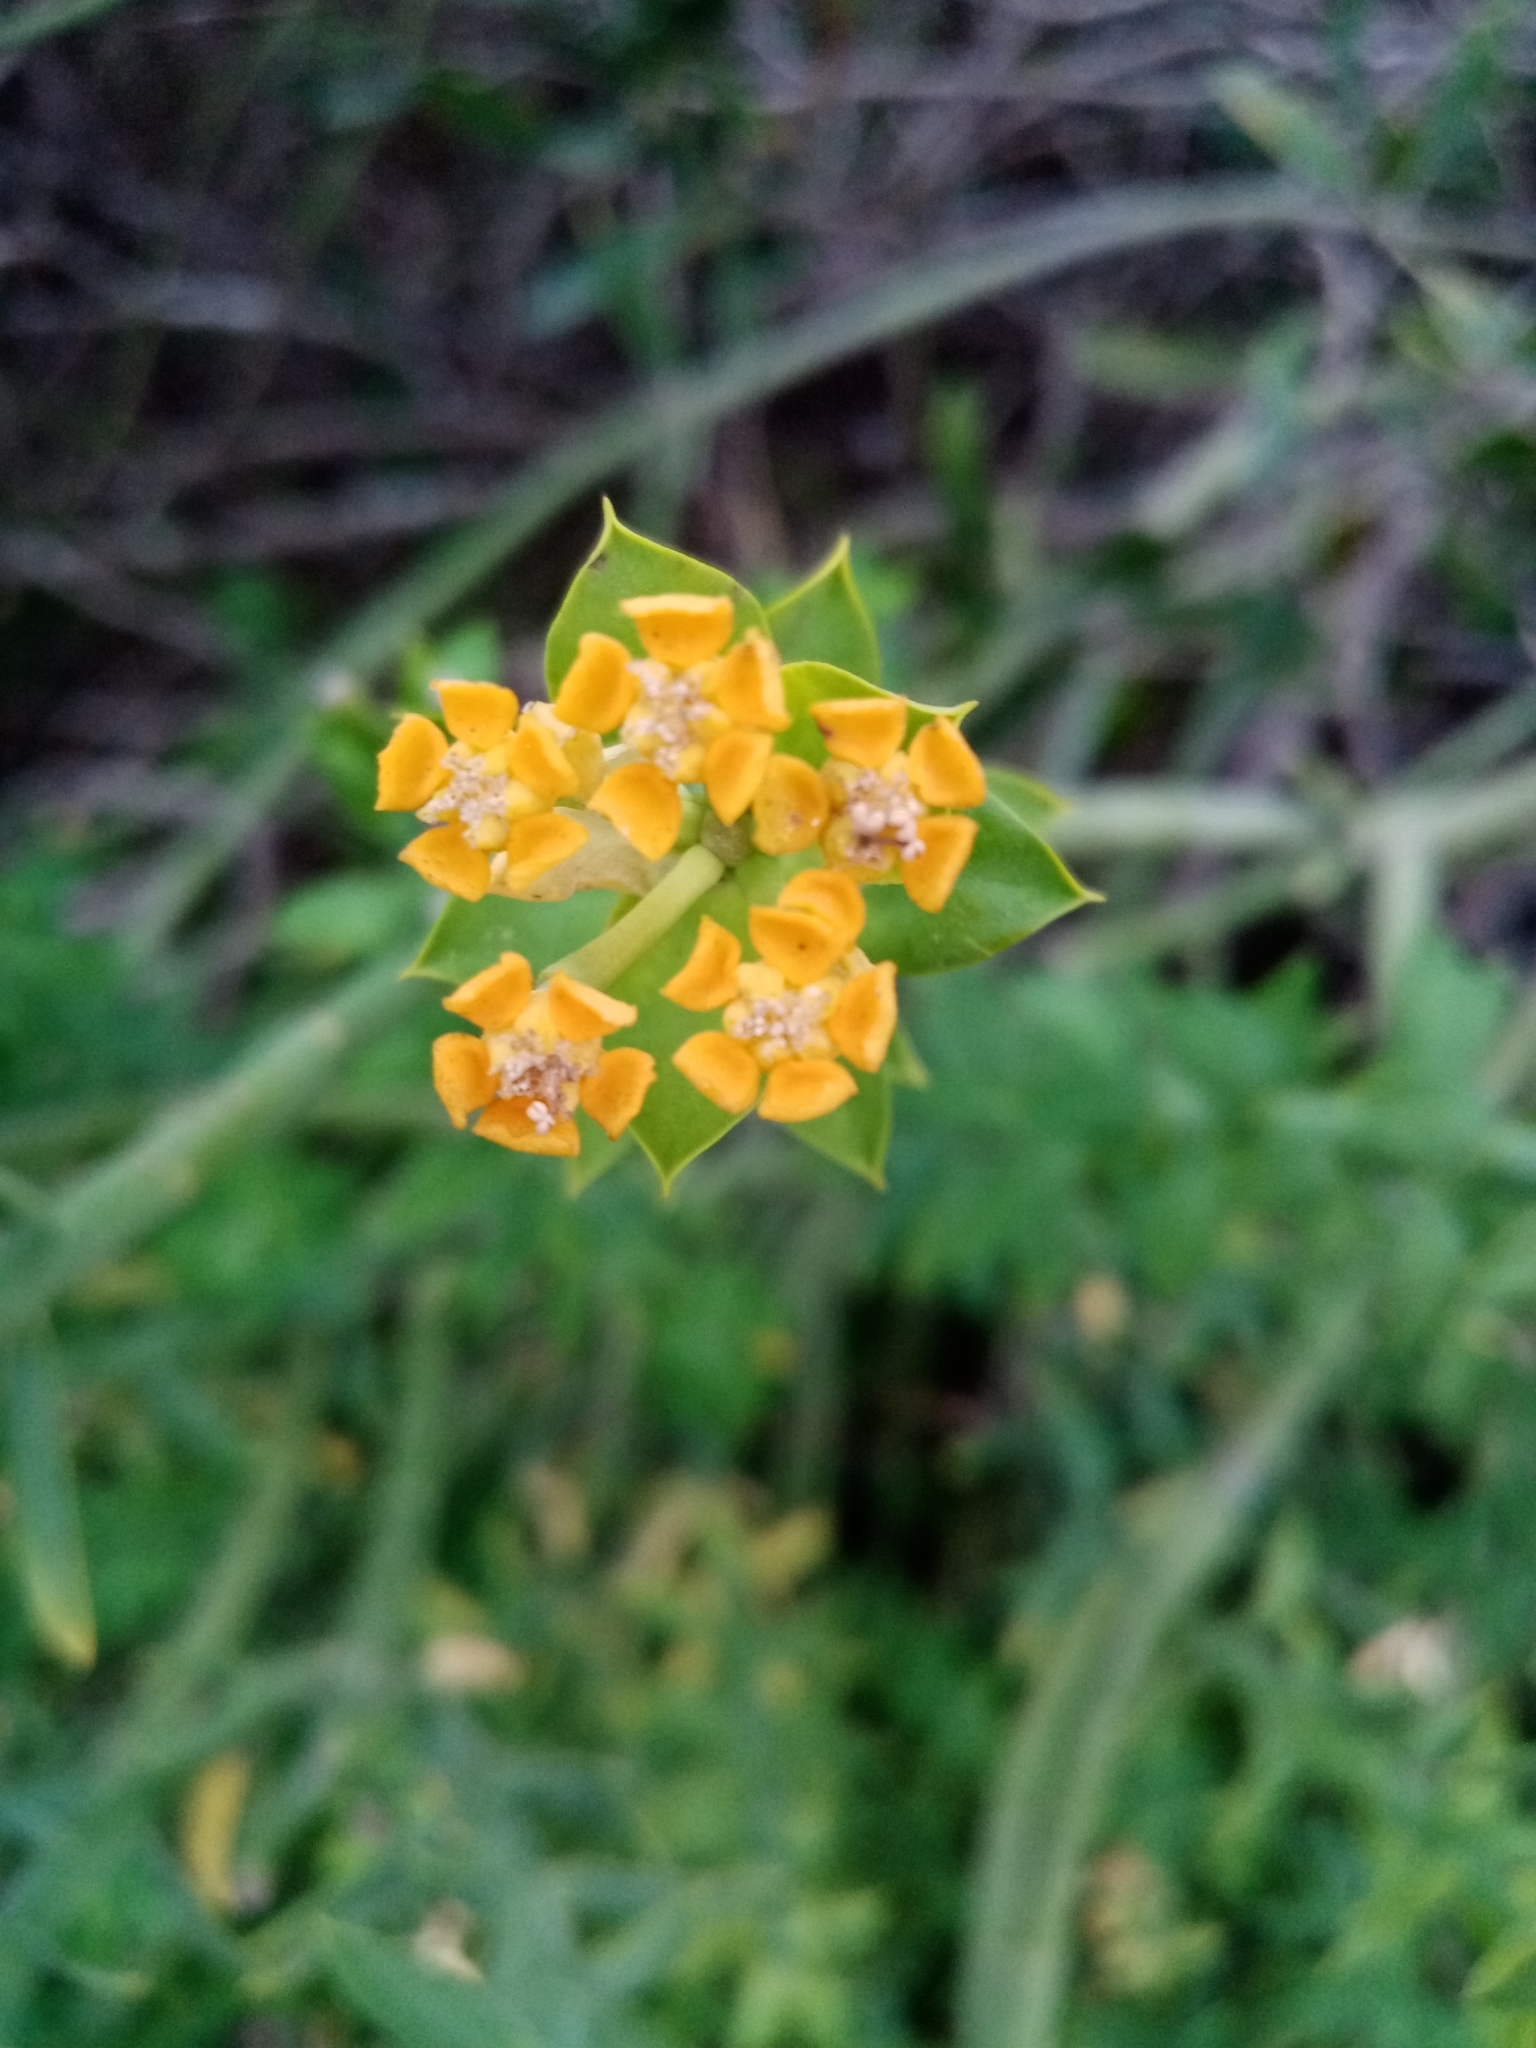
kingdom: Plantae
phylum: Tracheophyta
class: Magnoliopsida
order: Malpighiales
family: Euphorbiaceae
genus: Euphorbia
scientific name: Euphorbia mauritanica
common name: Jackal's-food
